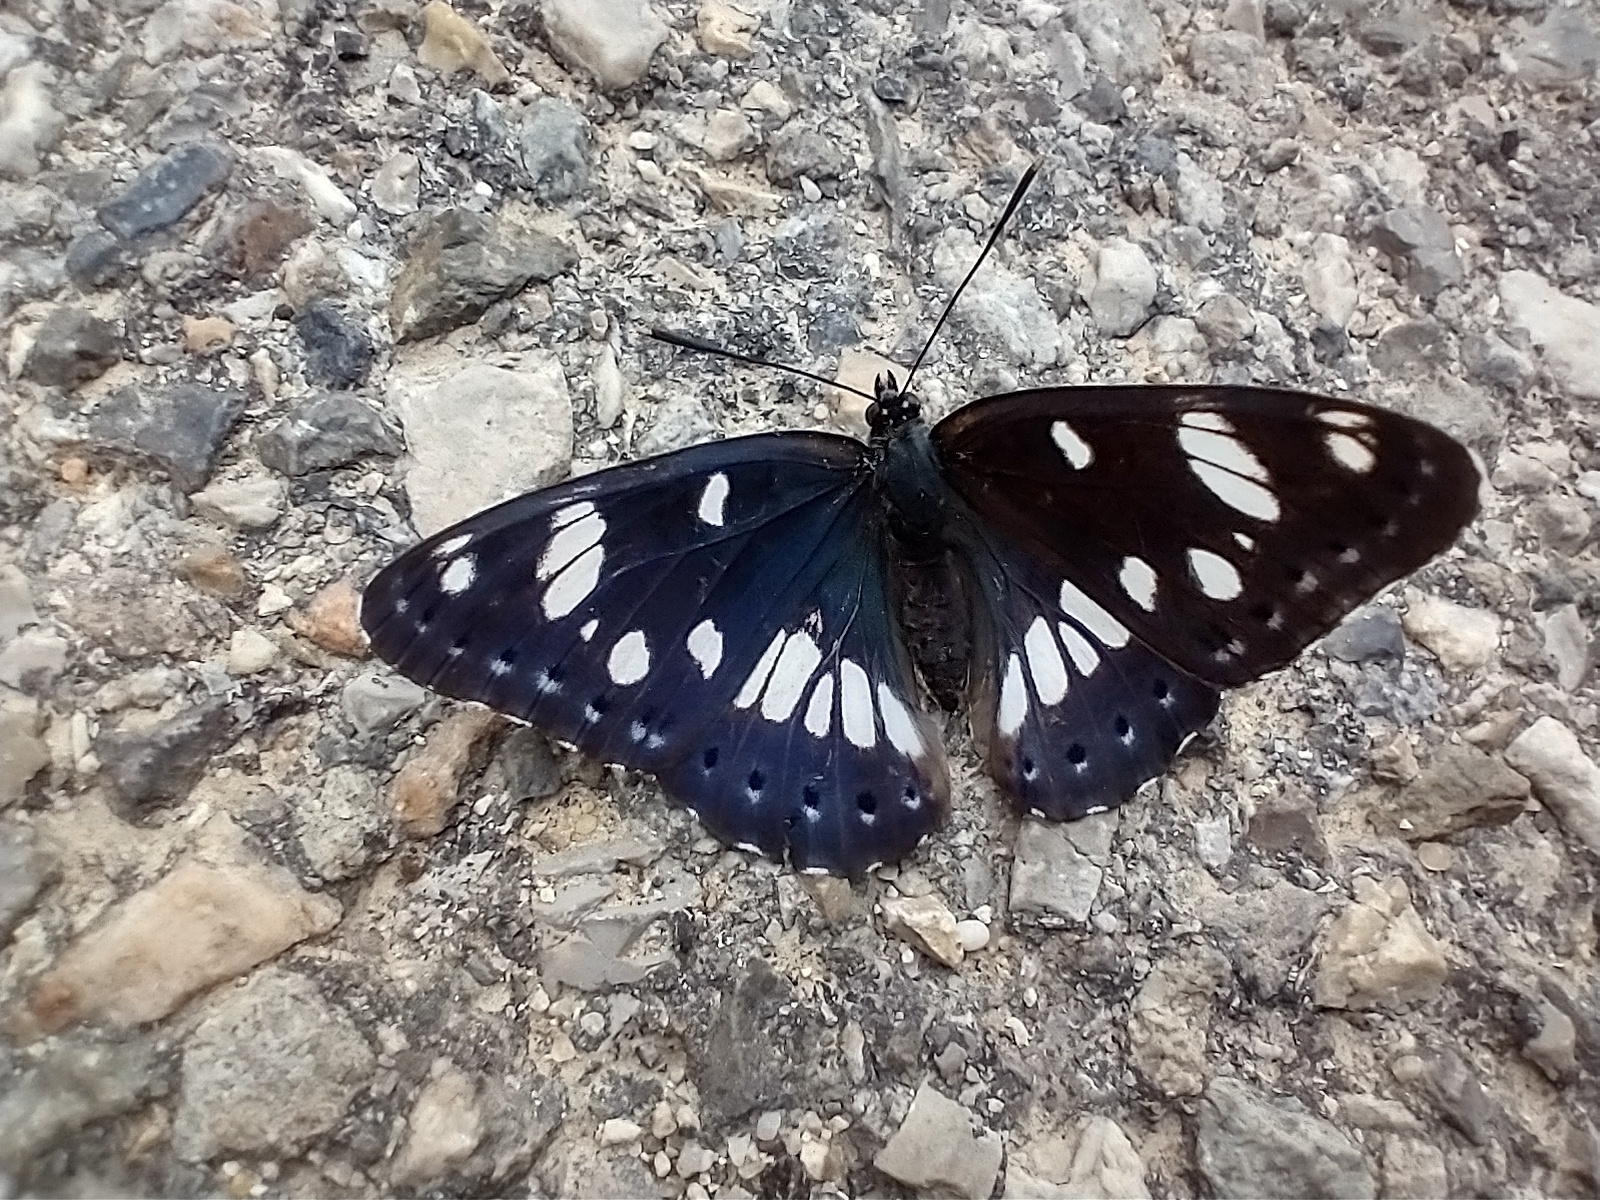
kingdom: Animalia
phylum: Arthropoda
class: Insecta
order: Lepidoptera
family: Nymphalidae
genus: Limenitis
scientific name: Limenitis reducta
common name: Southern white admiral
